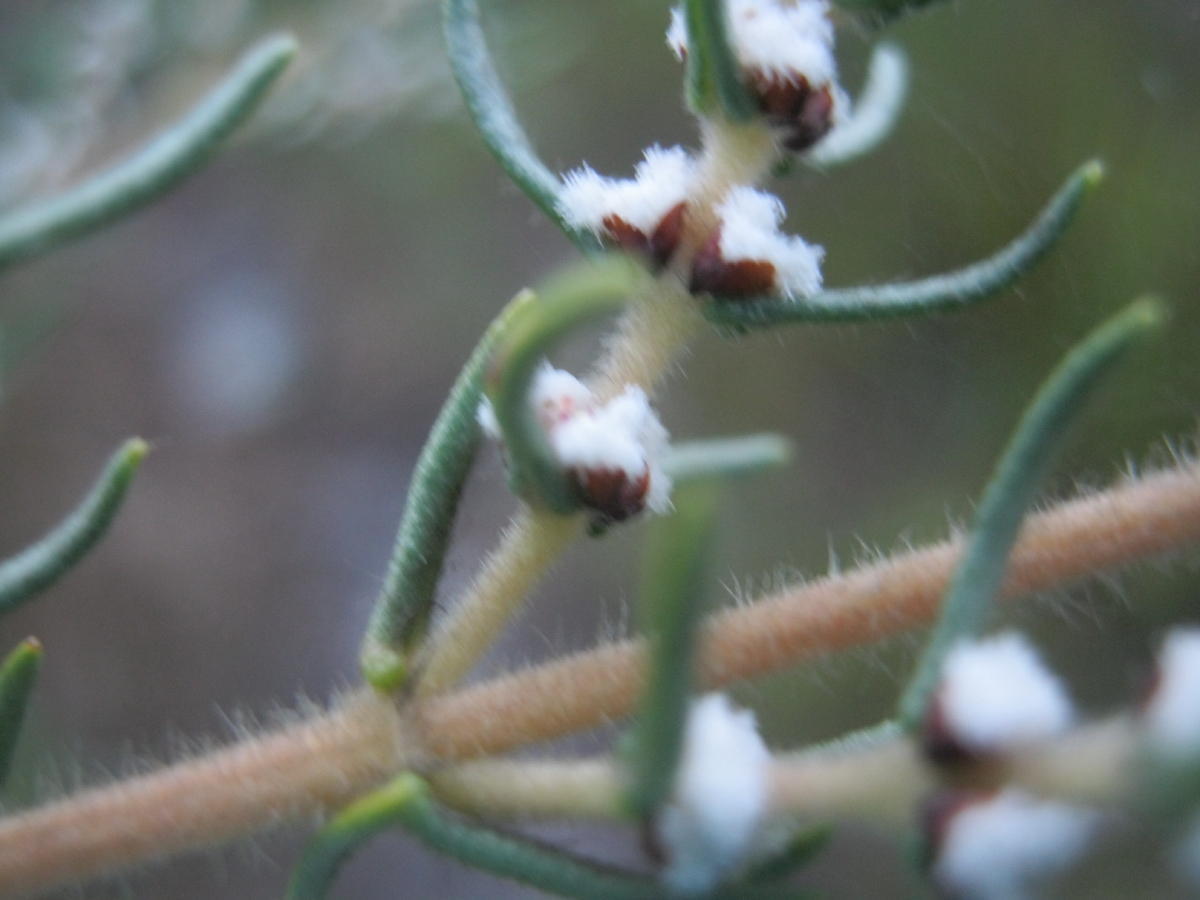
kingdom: Plantae
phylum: Tracheophyta
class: Magnoliopsida
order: Cornales
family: Grubbiaceae
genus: Grubbia
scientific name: Grubbia rosmarinifolia
